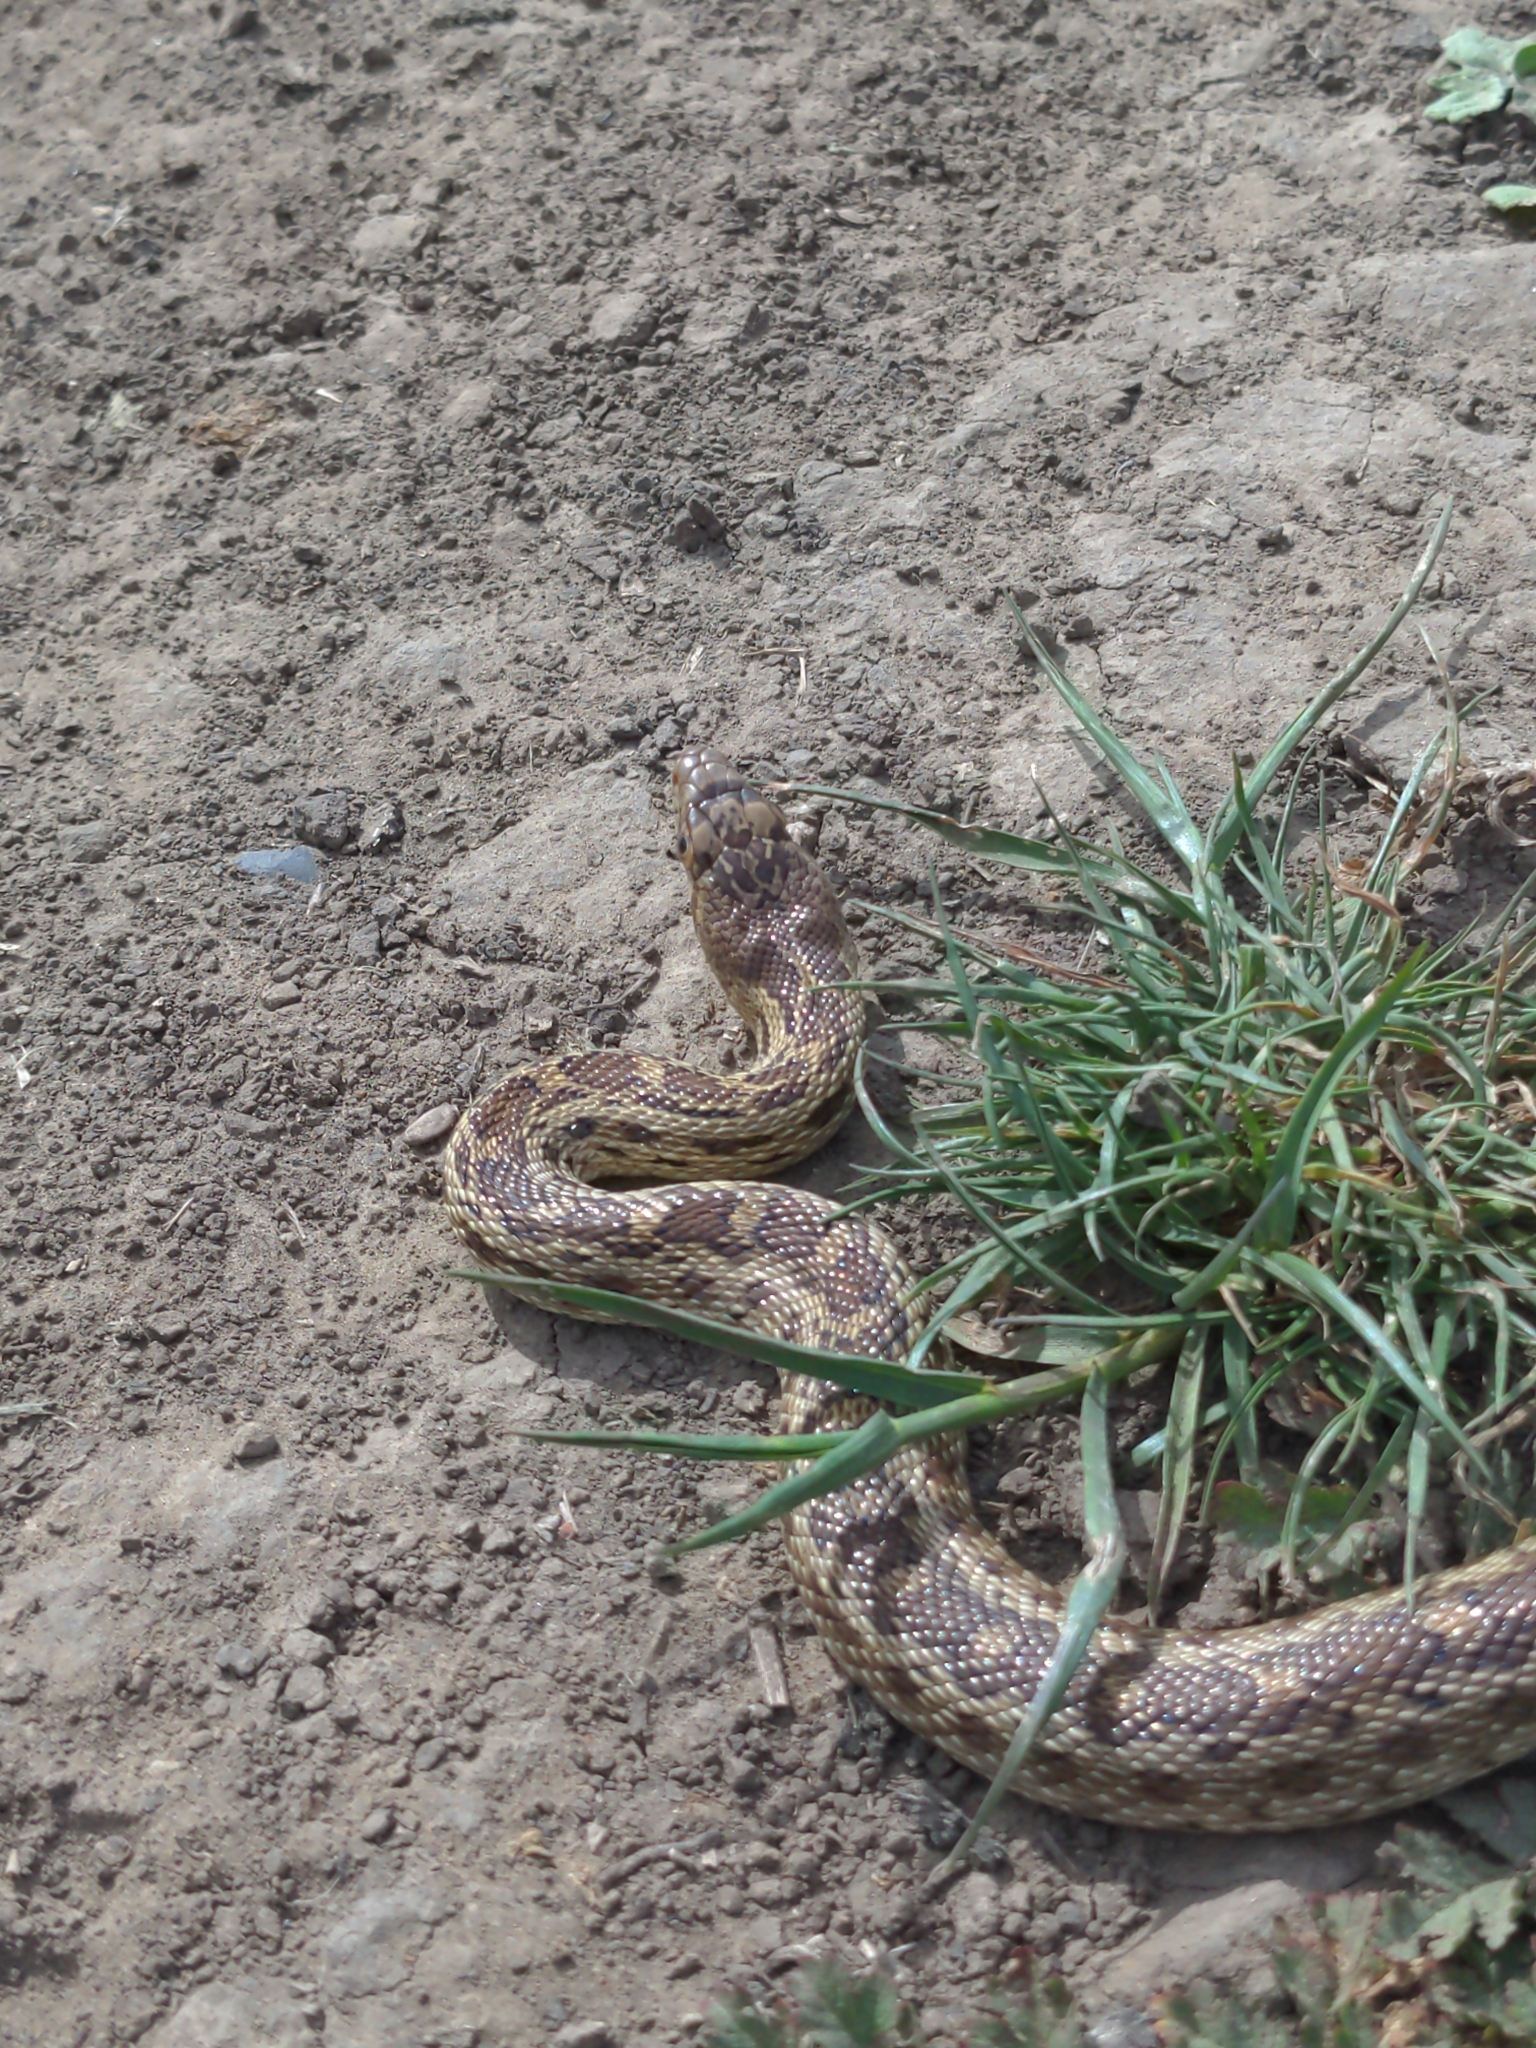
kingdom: Animalia
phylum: Chordata
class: Squamata
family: Colubridae
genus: Pituophis
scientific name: Pituophis catenifer
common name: Gopher snake
